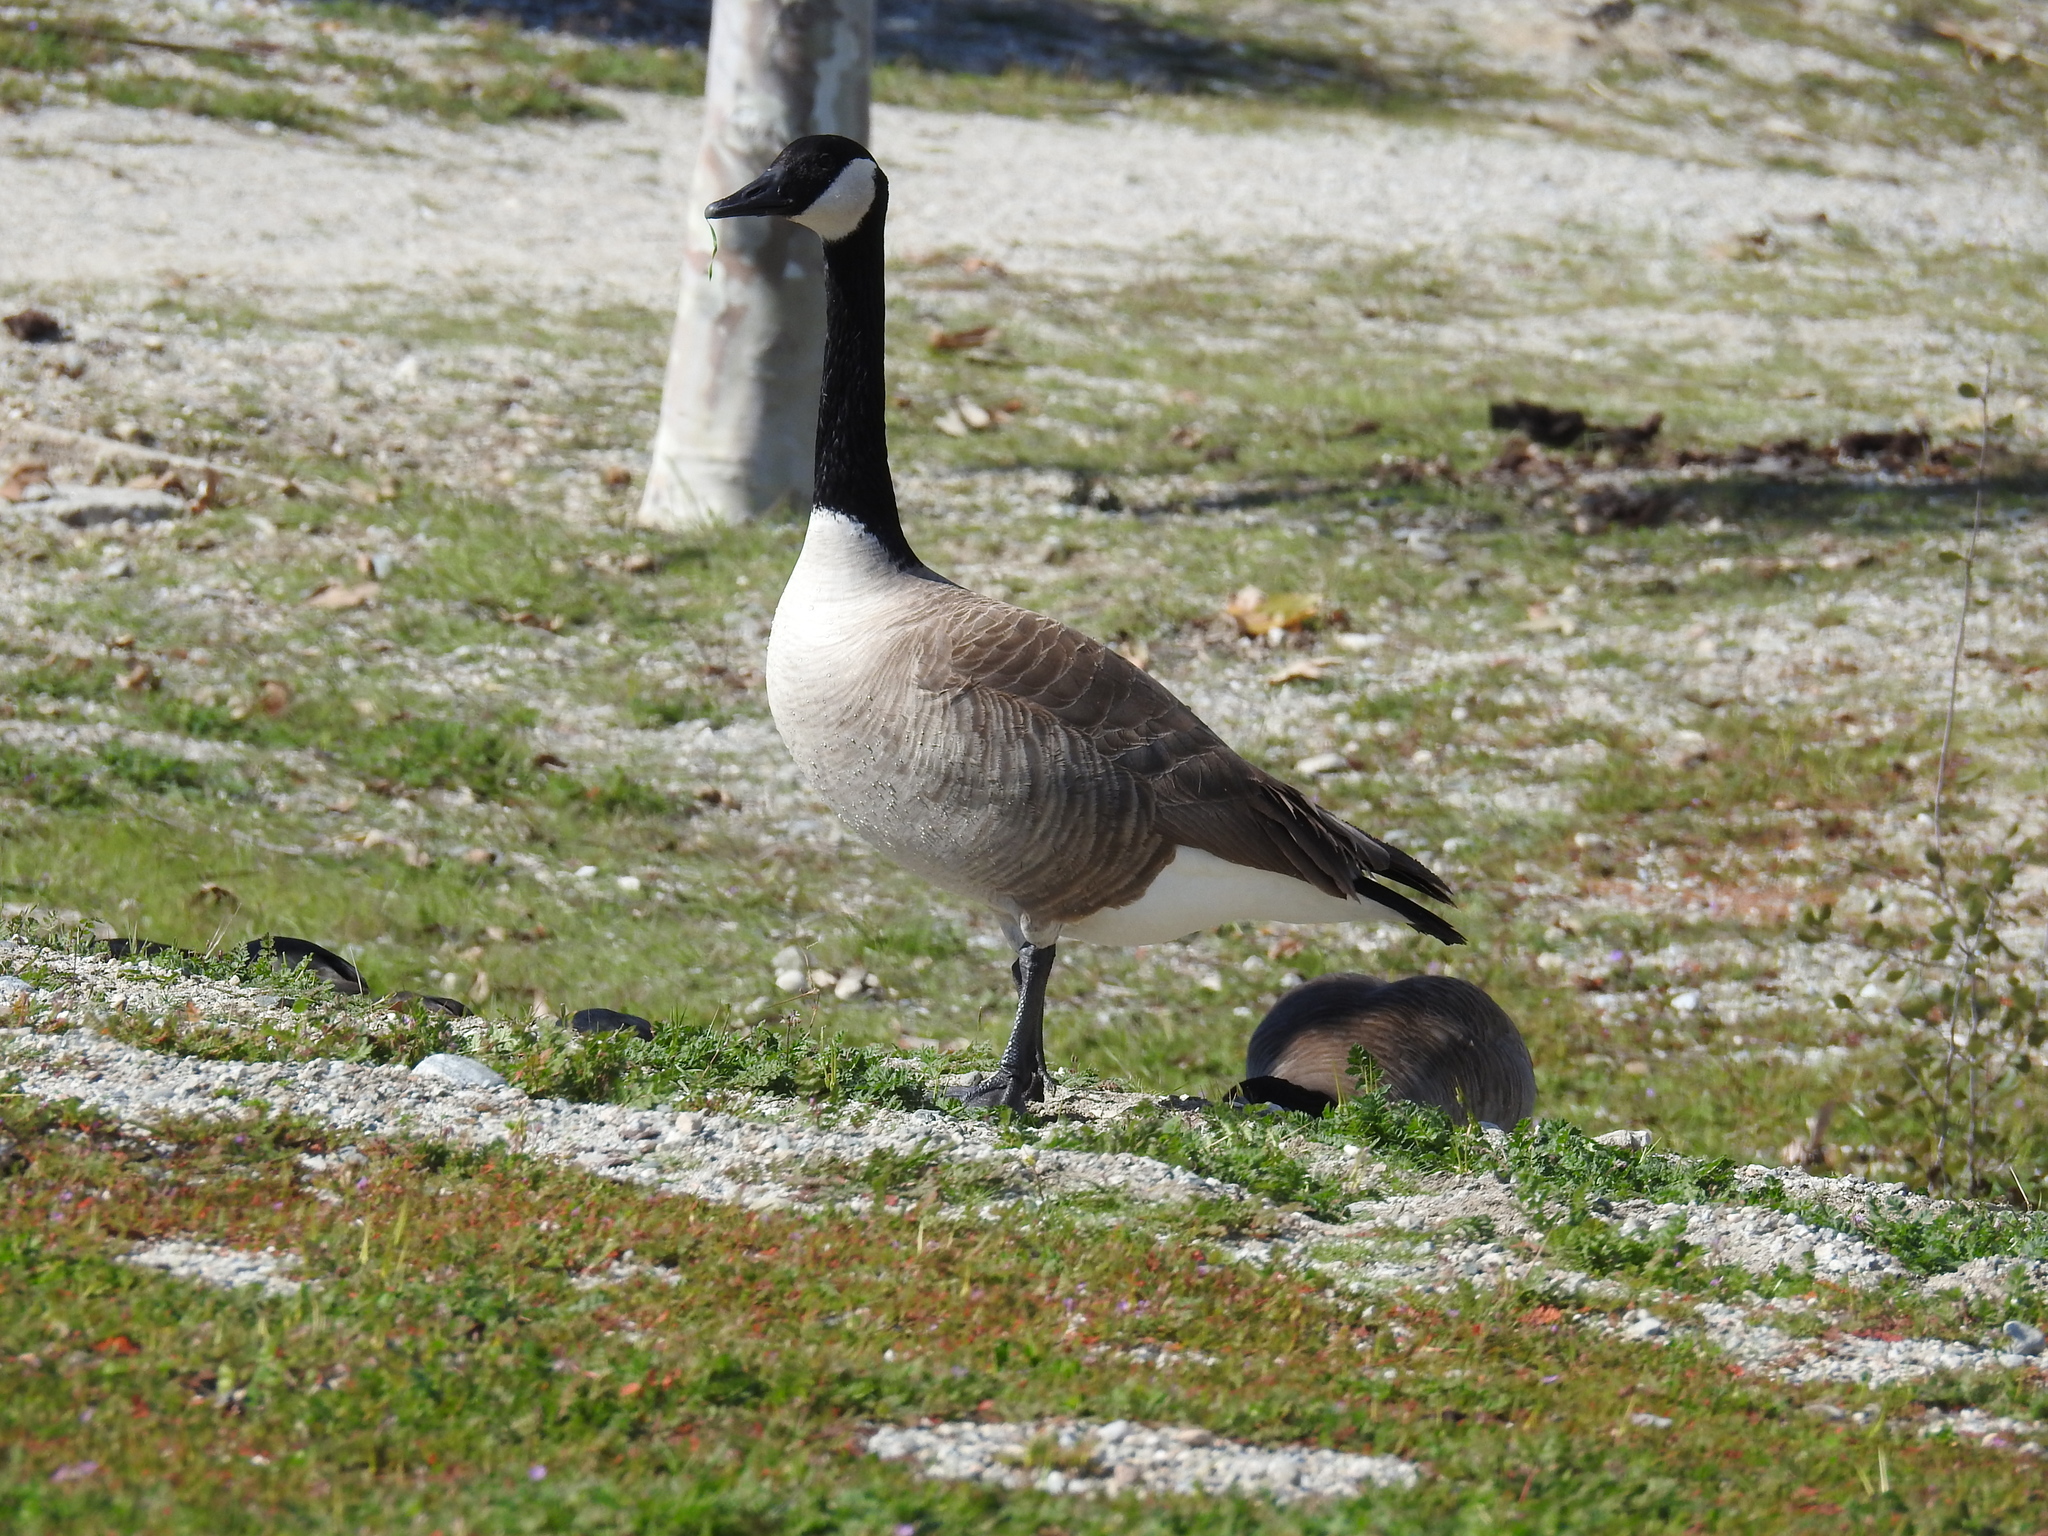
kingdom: Animalia
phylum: Chordata
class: Aves
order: Anseriformes
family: Anatidae
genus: Branta
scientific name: Branta canadensis
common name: Canada goose
